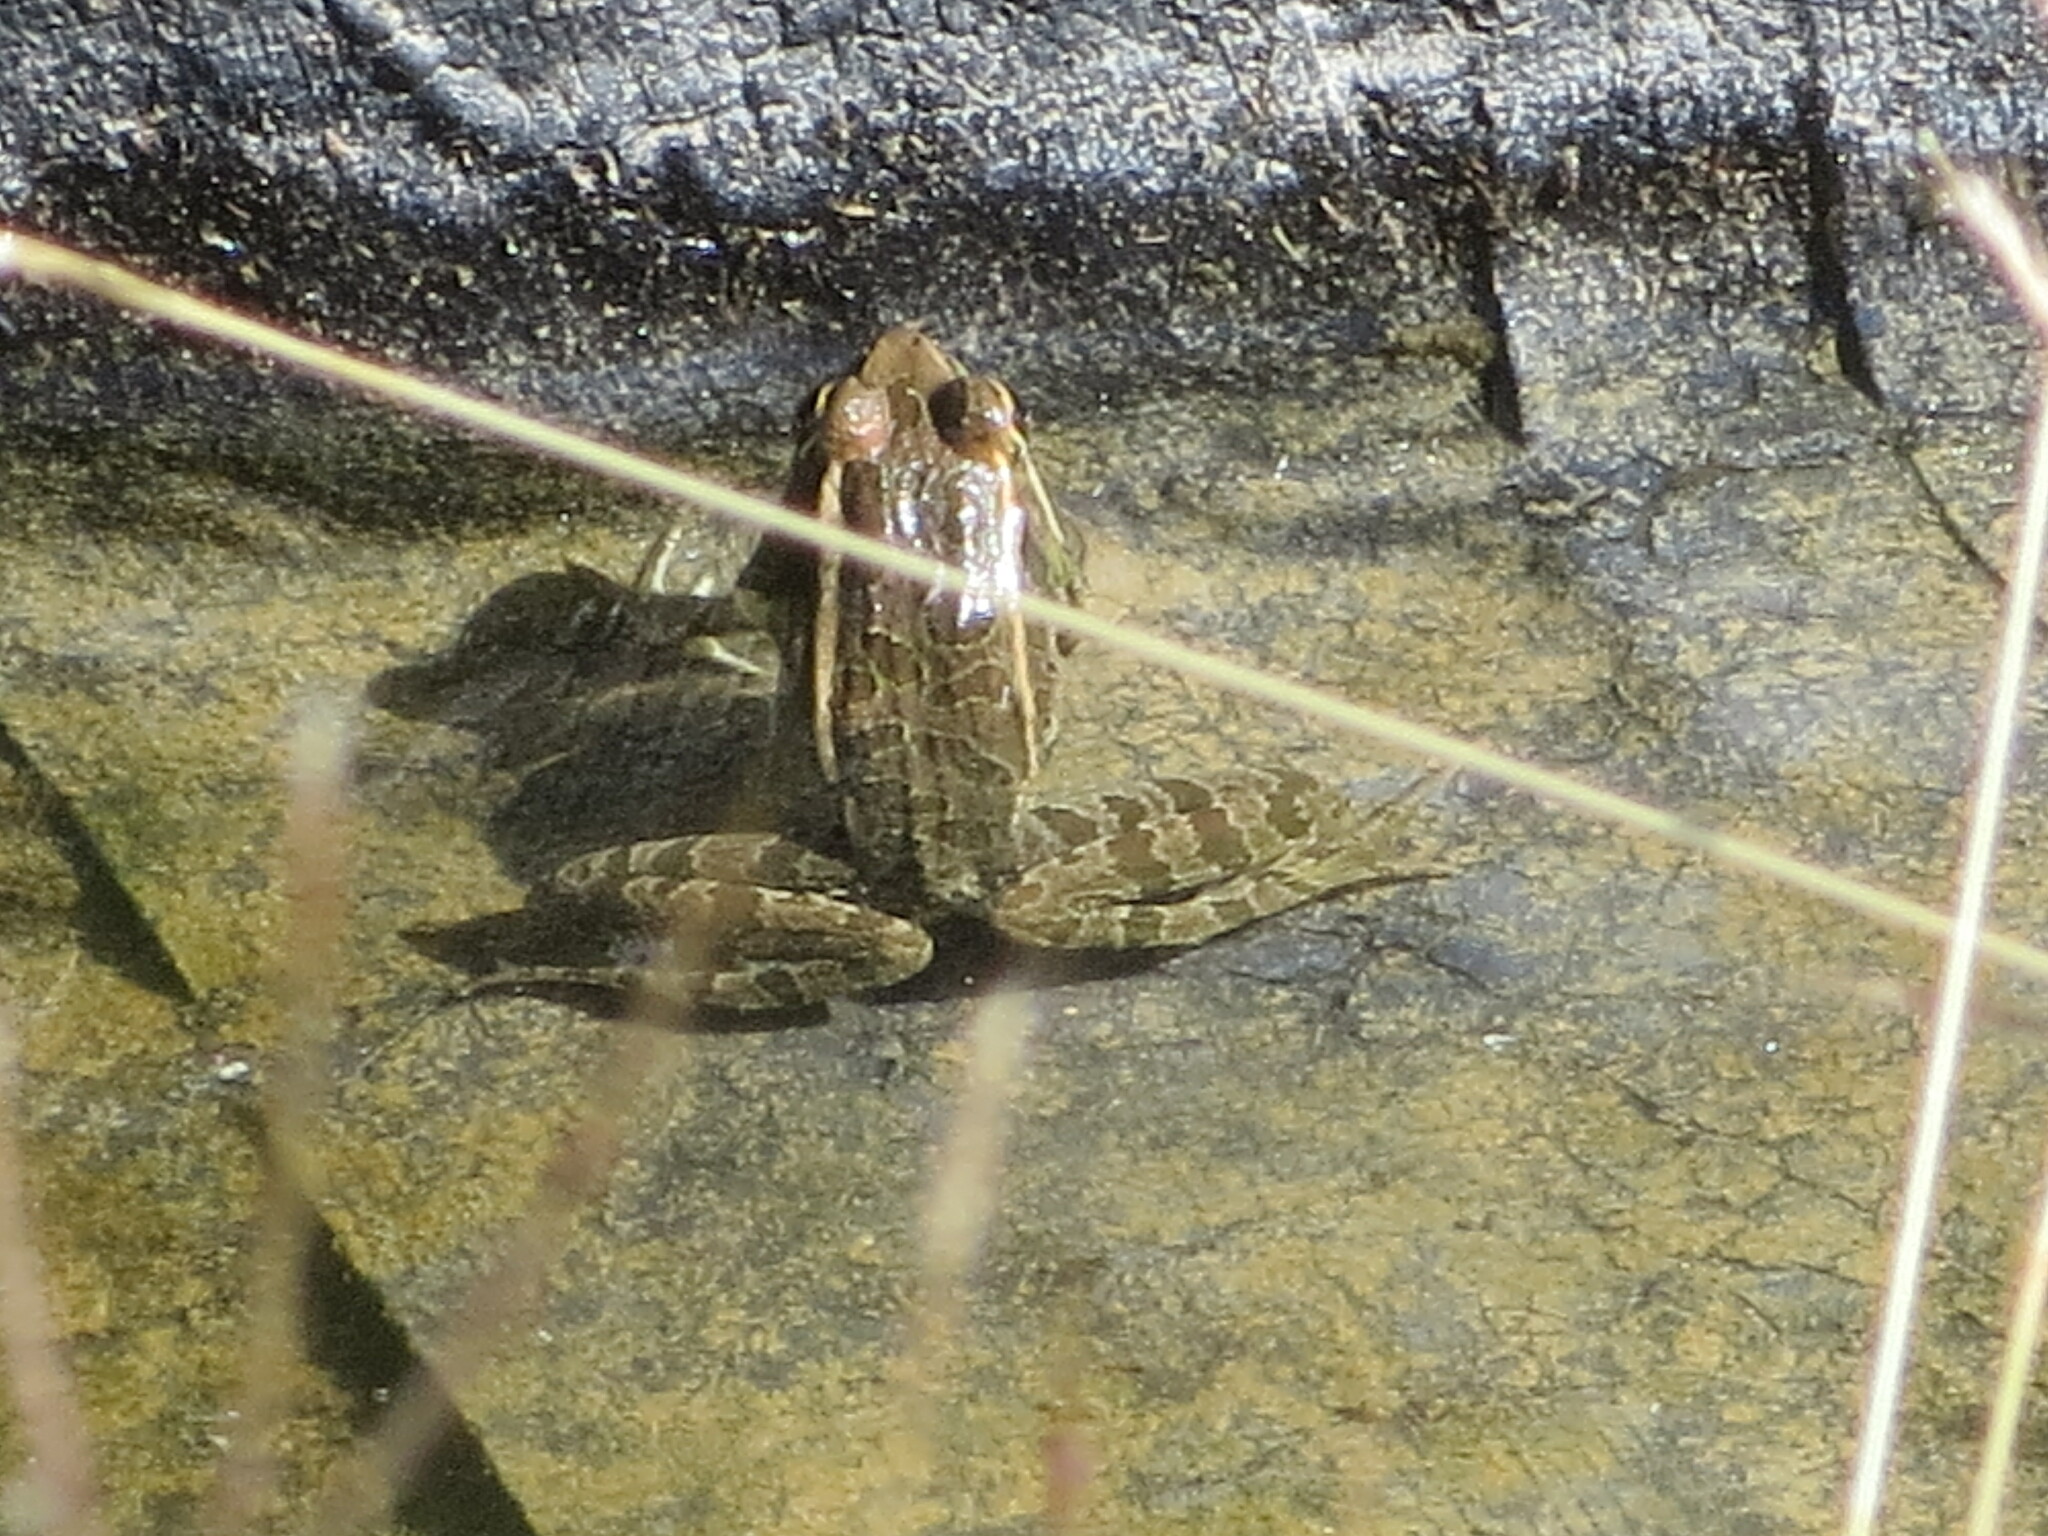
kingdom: Animalia
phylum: Chordata
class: Amphibia
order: Anura
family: Ranidae
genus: Lithobates
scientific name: Lithobates berlandieri
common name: Rio grande leopard frog
